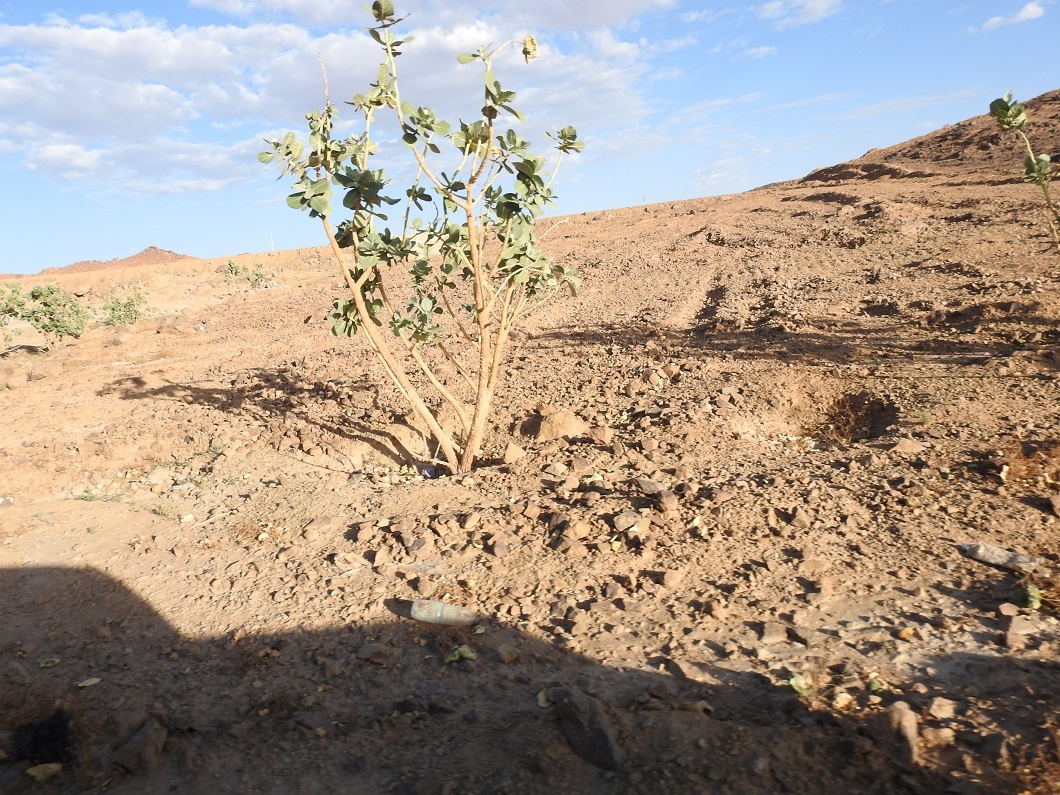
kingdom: Plantae
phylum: Tracheophyta
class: Magnoliopsida
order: Gentianales
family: Apocynaceae
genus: Calotropis
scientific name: Calotropis procera
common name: Roostertree
